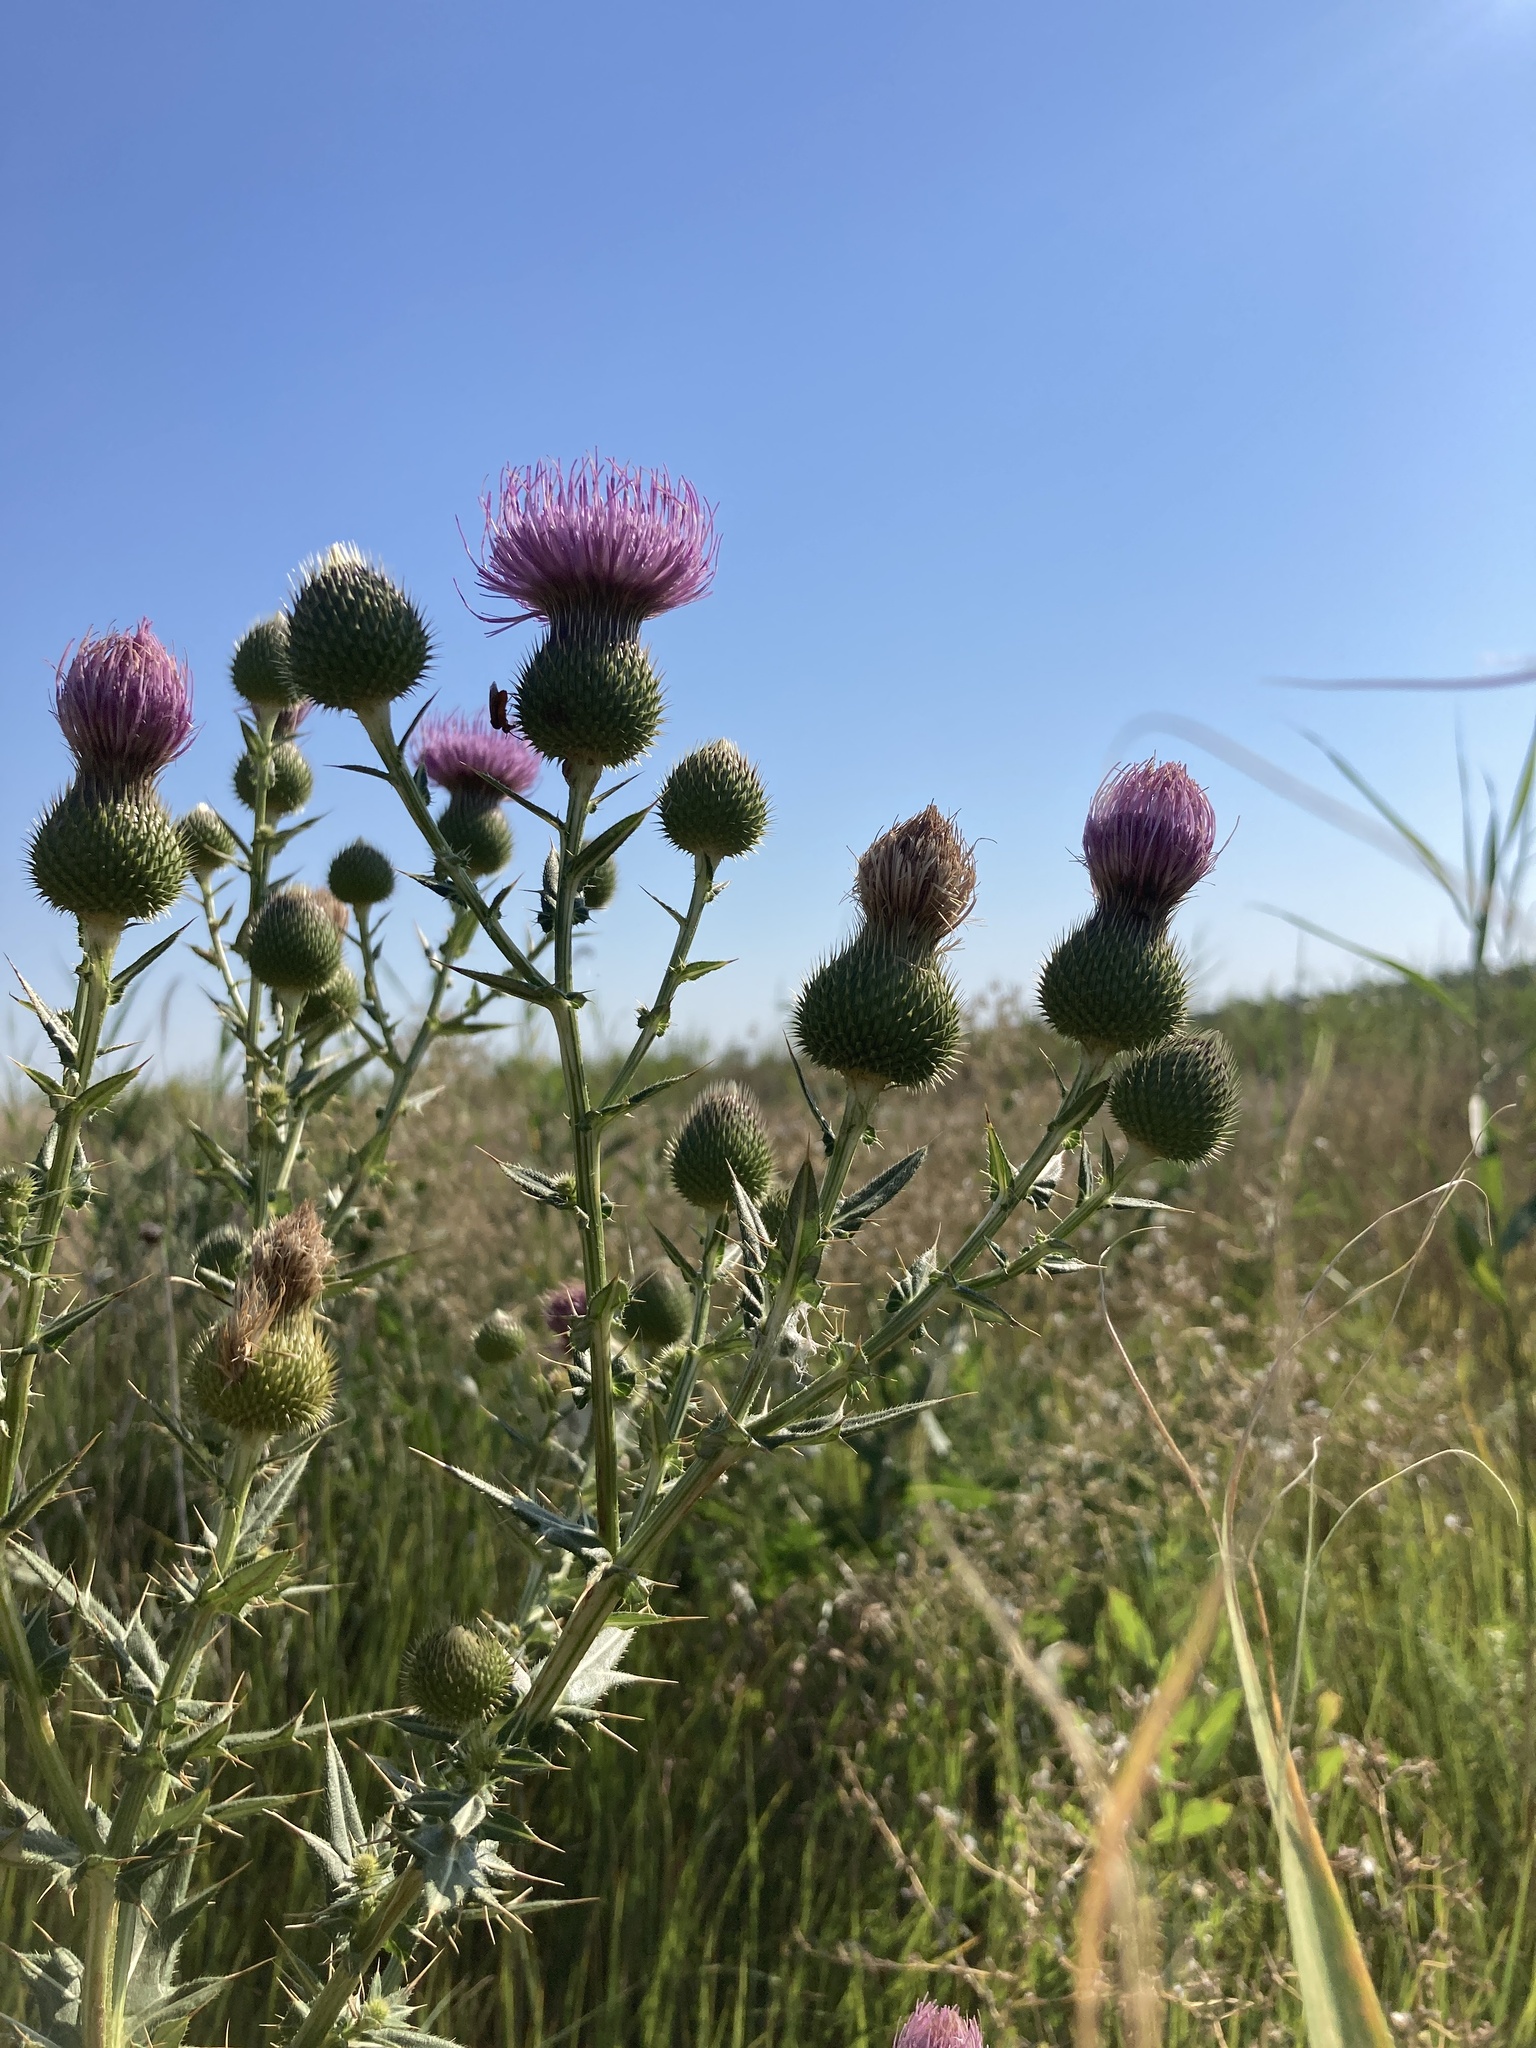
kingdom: Plantae
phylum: Tracheophyta
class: Magnoliopsida
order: Asterales
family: Asteraceae
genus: Cirsium
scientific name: Cirsium serrulatum
